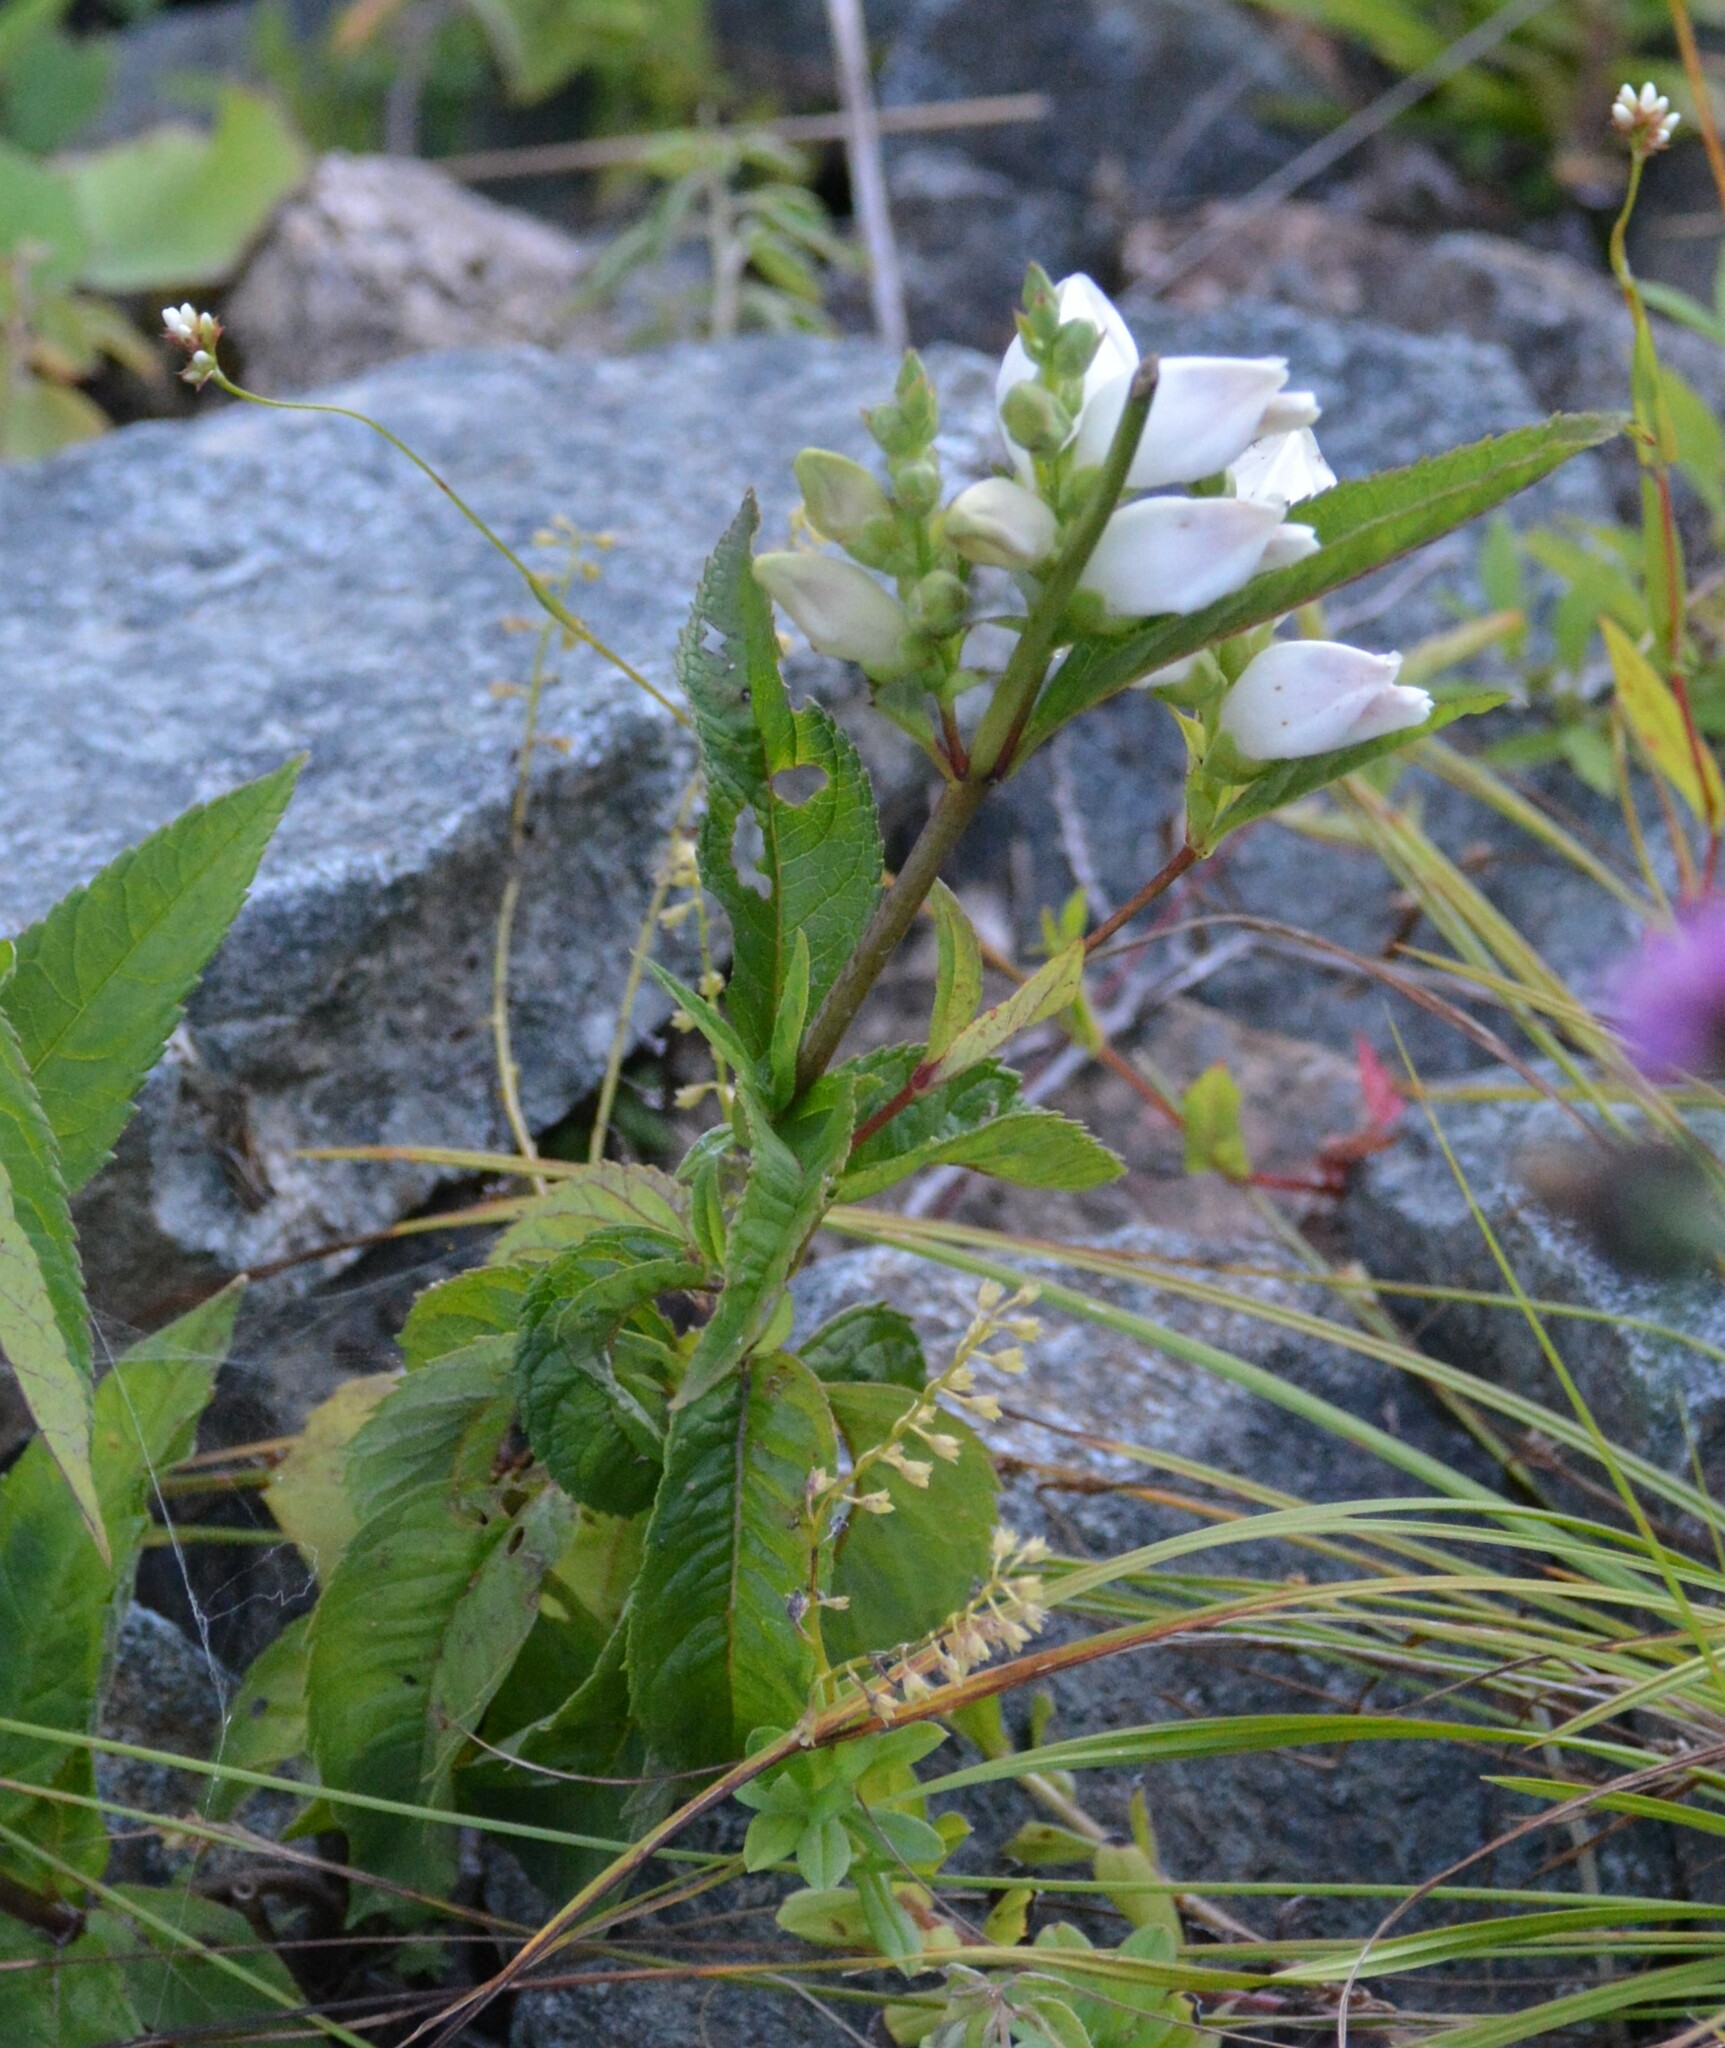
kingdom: Plantae
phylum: Tracheophyta
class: Magnoliopsida
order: Lamiales
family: Plantaginaceae
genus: Chelone
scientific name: Chelone glabra
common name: Snakehead
